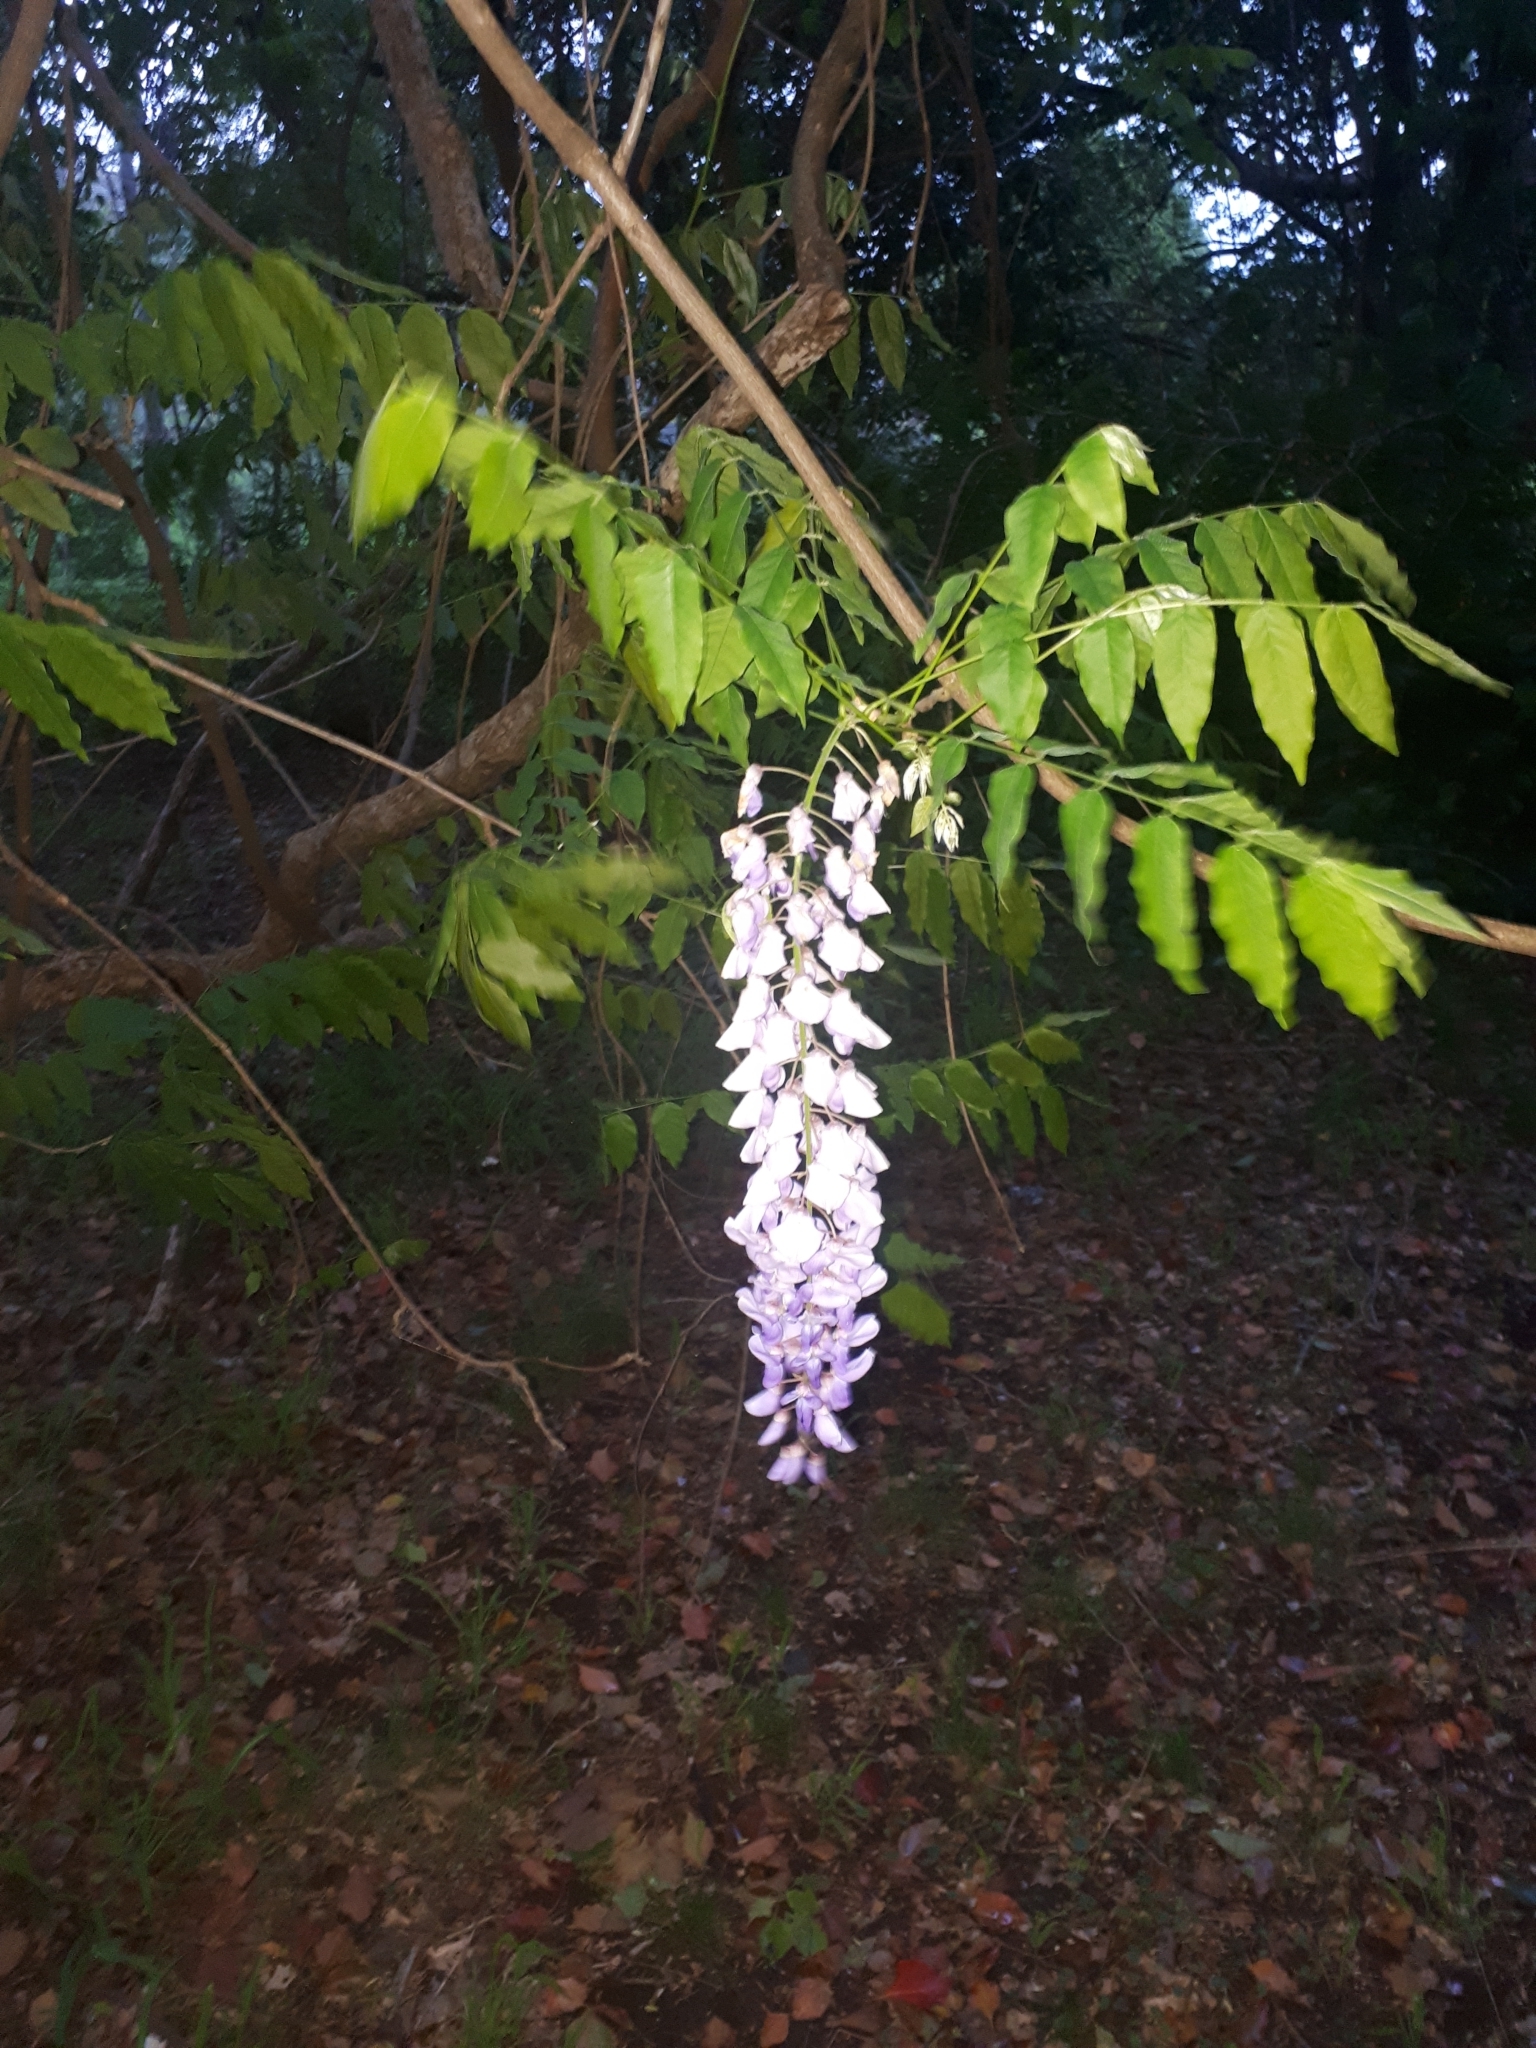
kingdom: Plantae
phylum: Tracheophyta
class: Magnoliopsida
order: Fabales
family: Fabaceae
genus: Wisteria
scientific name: Wisteria sinensis
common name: Chinese wisteria
